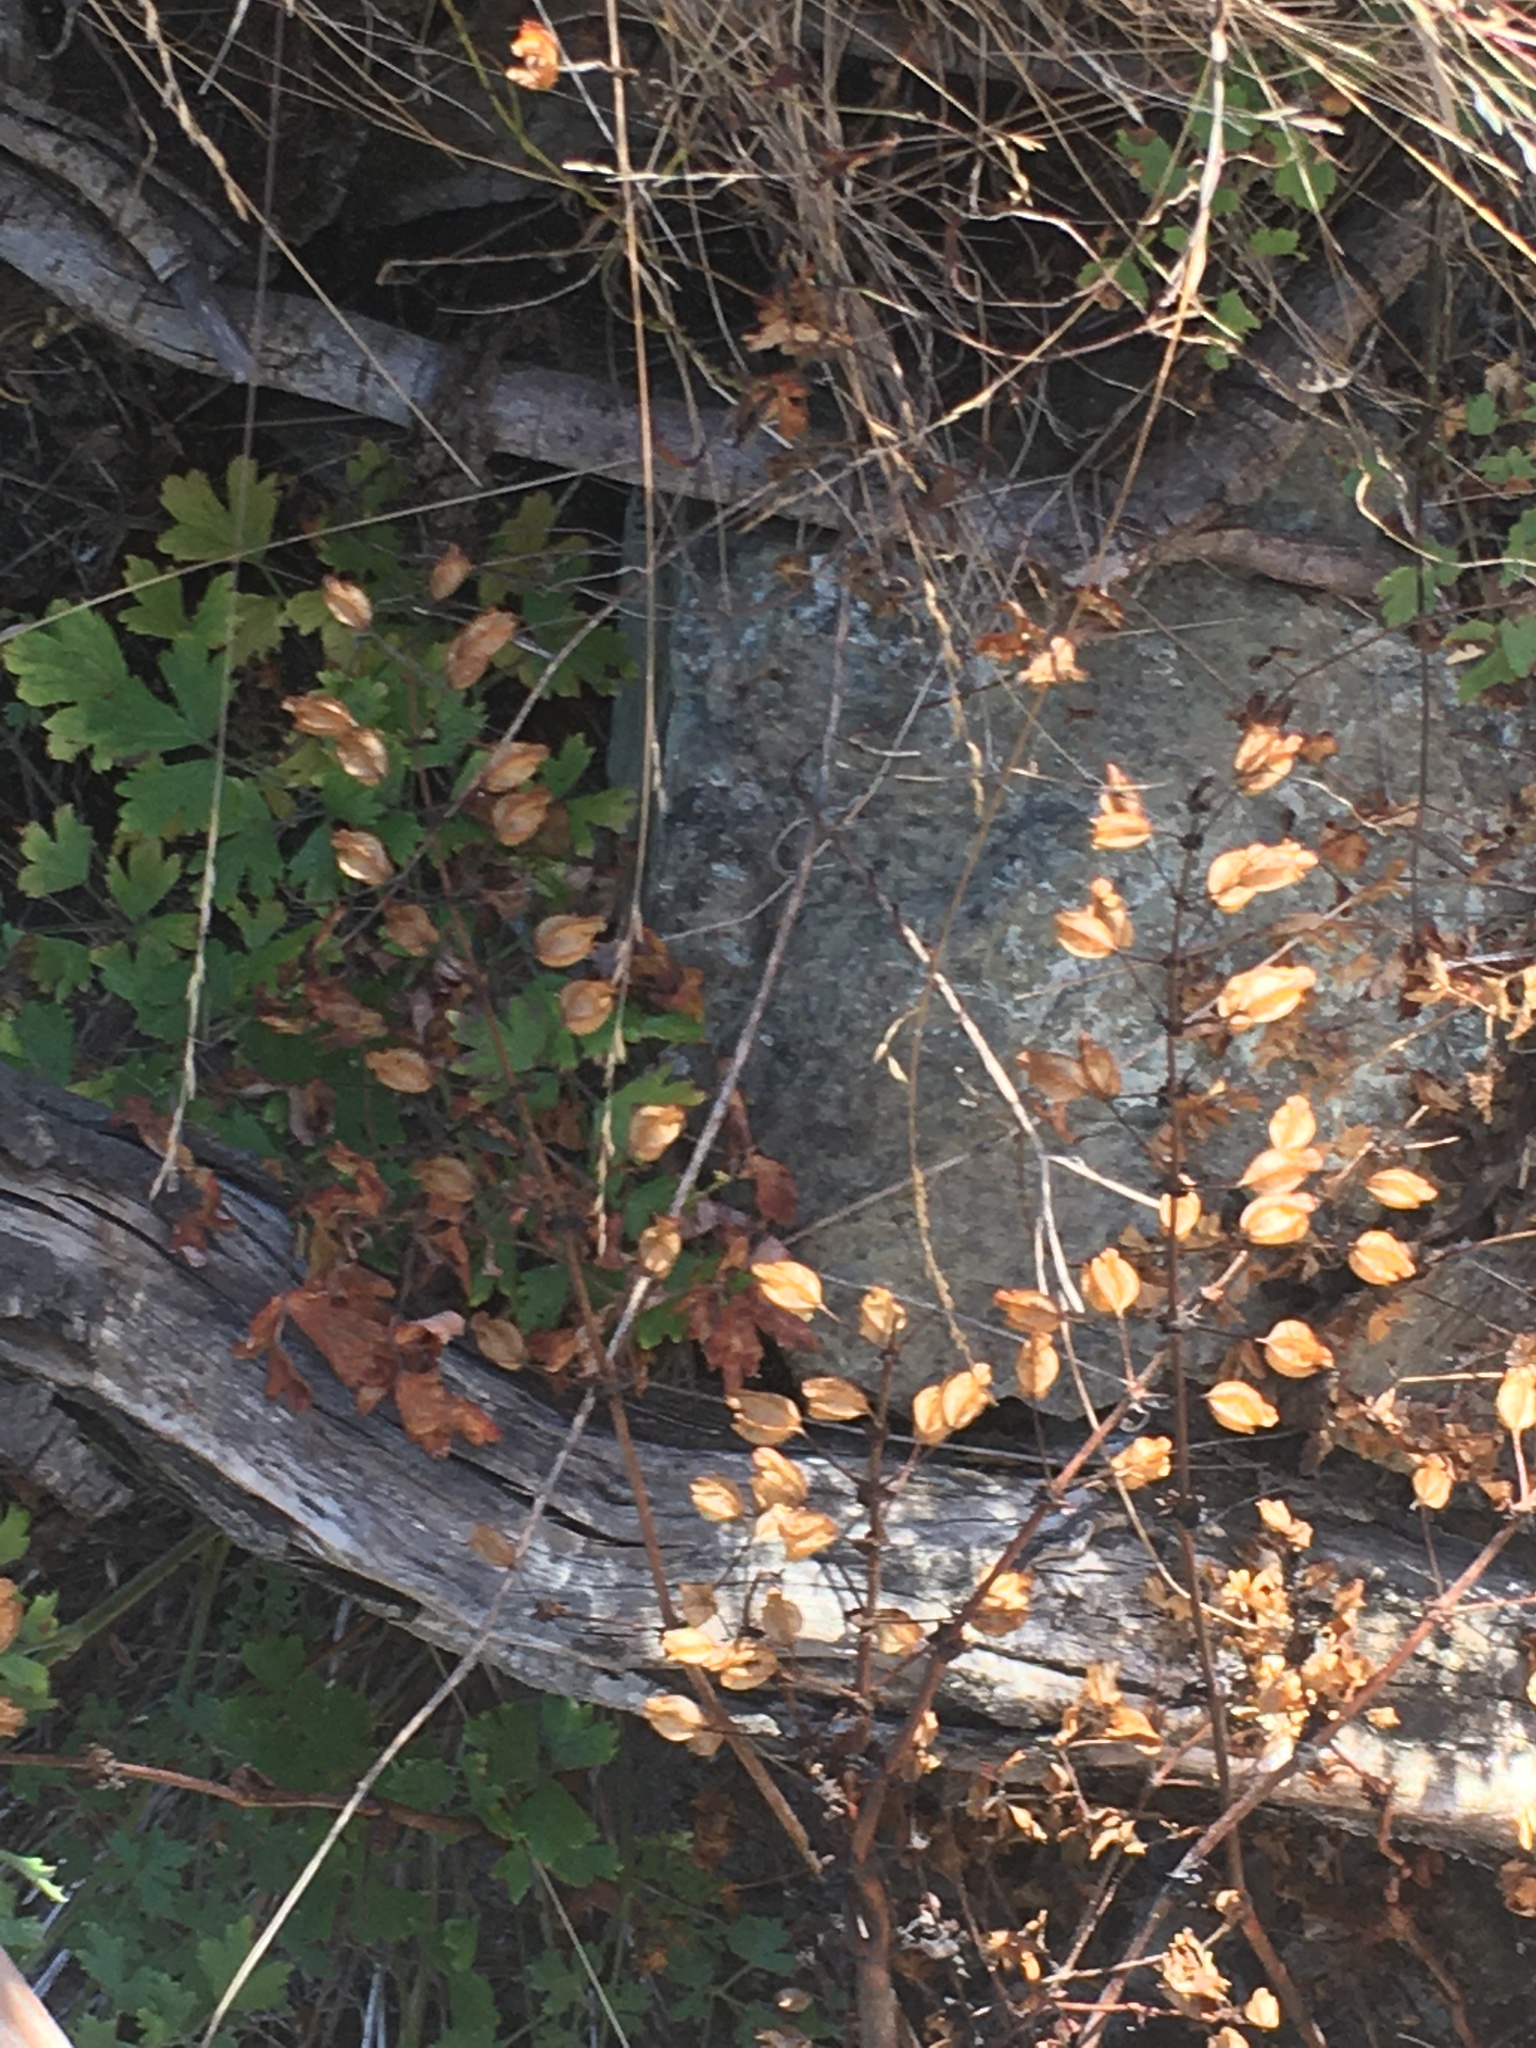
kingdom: Plantae
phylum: Tracheophyta
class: Magnoliopsida
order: Lamiales
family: Phrymaceae
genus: Erythranthe
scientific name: Erythranthe guttata
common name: Monkeyflower
